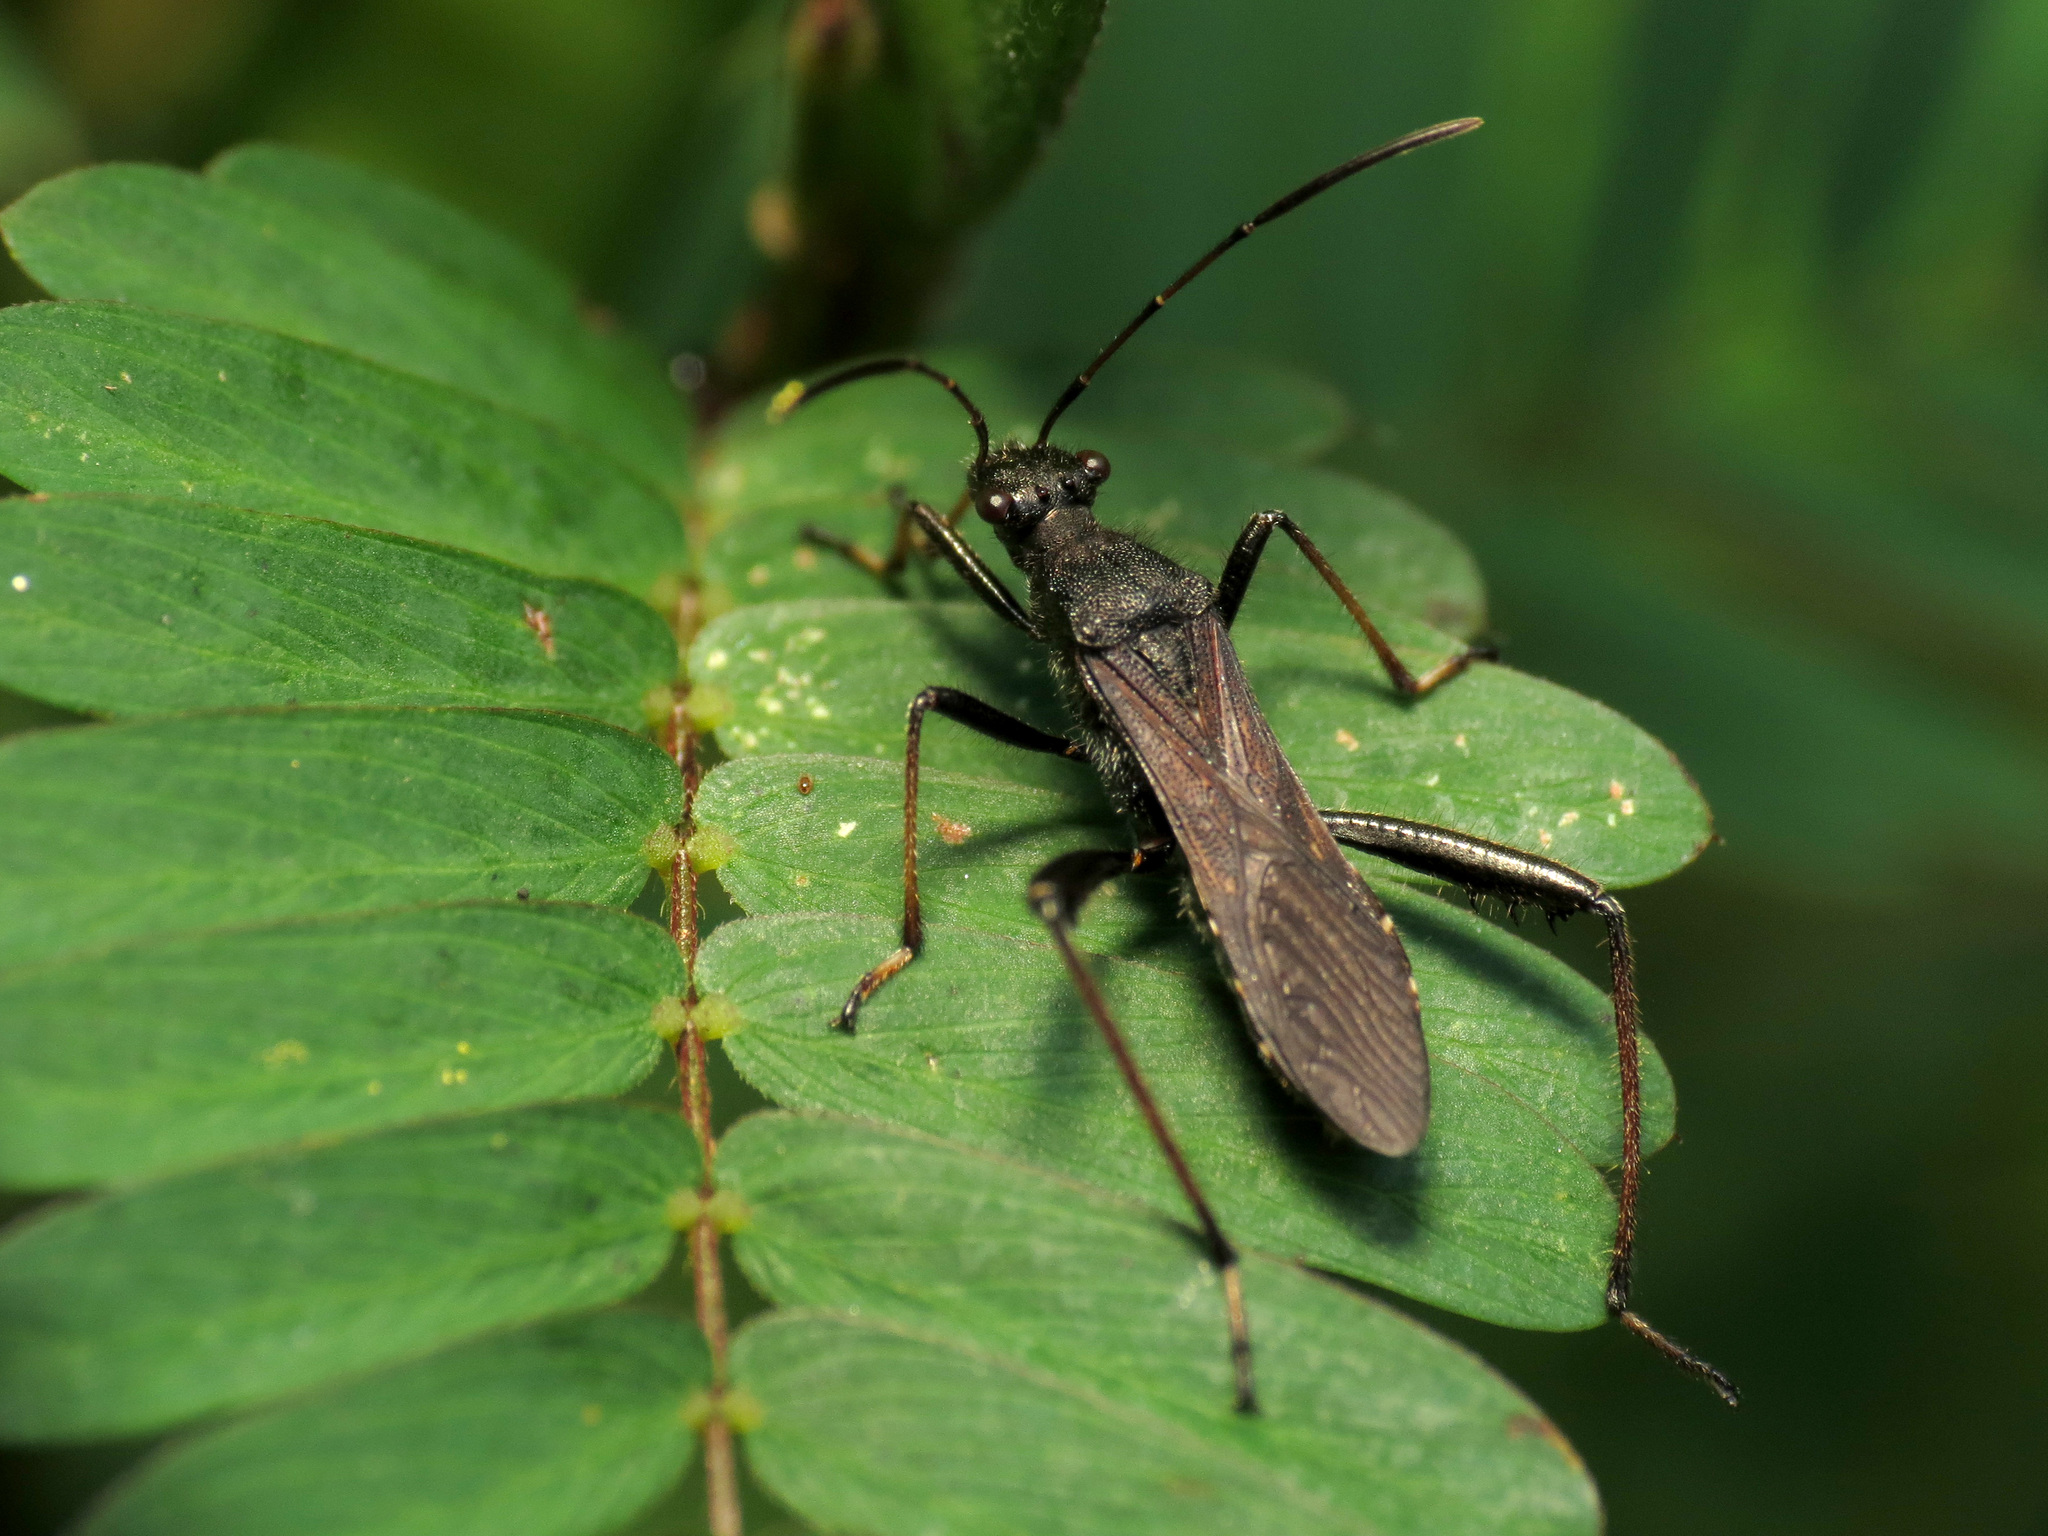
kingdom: Animalia
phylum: Arthropoda
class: Insecta
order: Hemiptera
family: Alydidae
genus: Alydus
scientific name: Alydus eurinus
